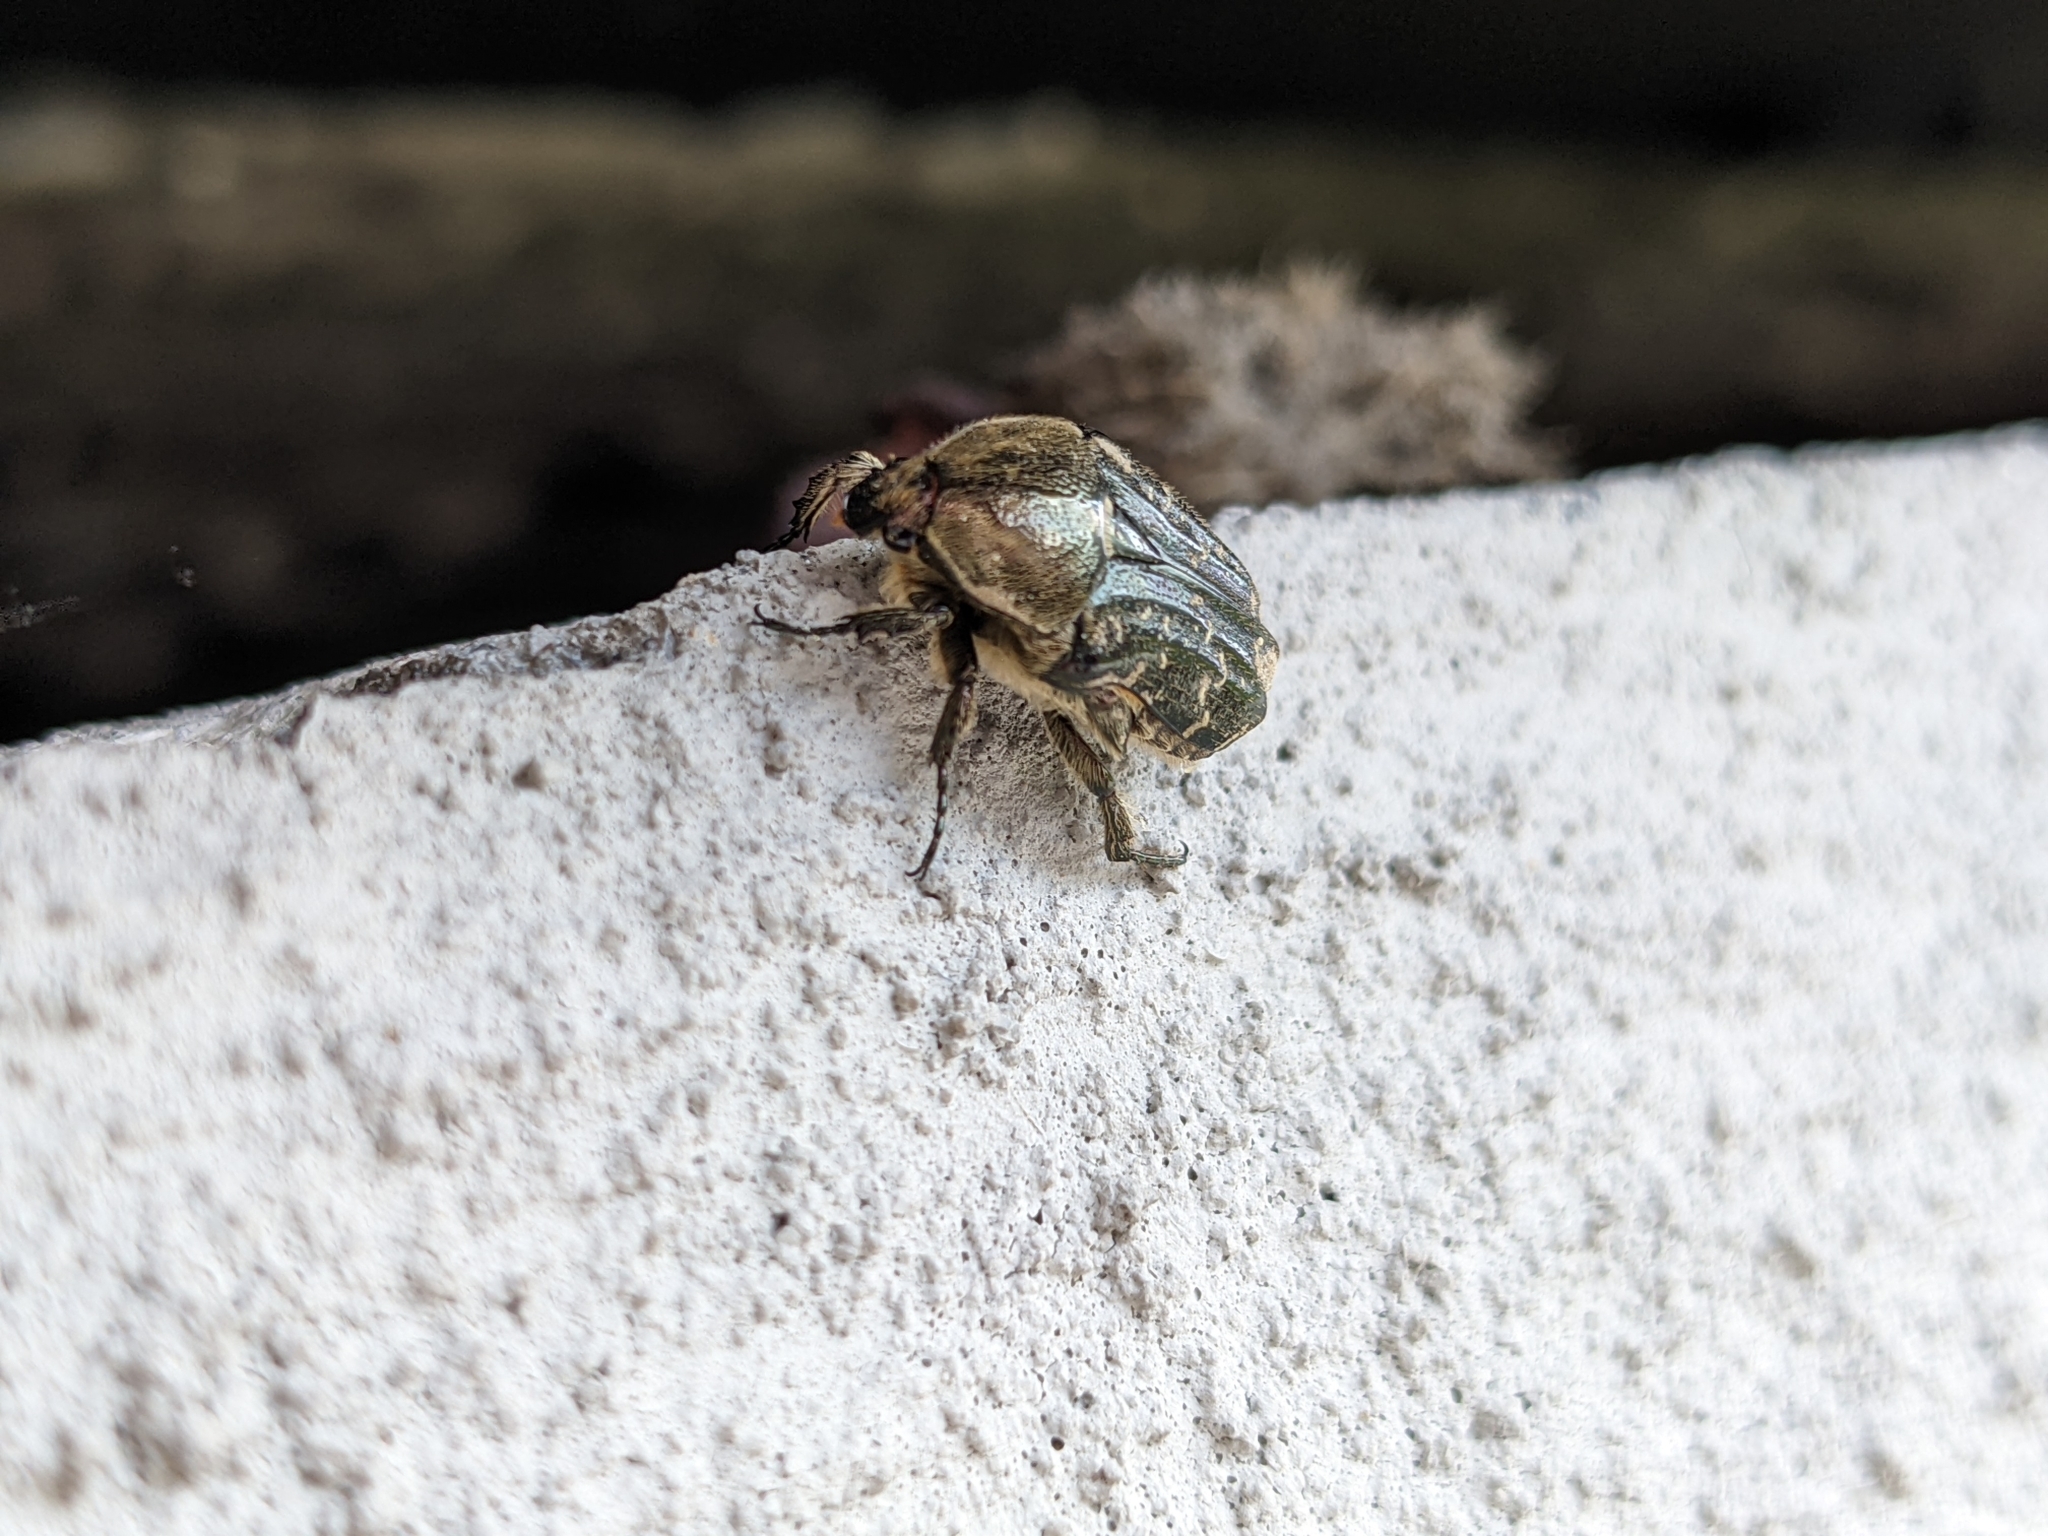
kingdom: Animalia
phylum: Arthropoda
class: Insecta
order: Coleoptera
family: Scarabaeidae
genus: Euphoria
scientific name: Euphoria sepulcralis
